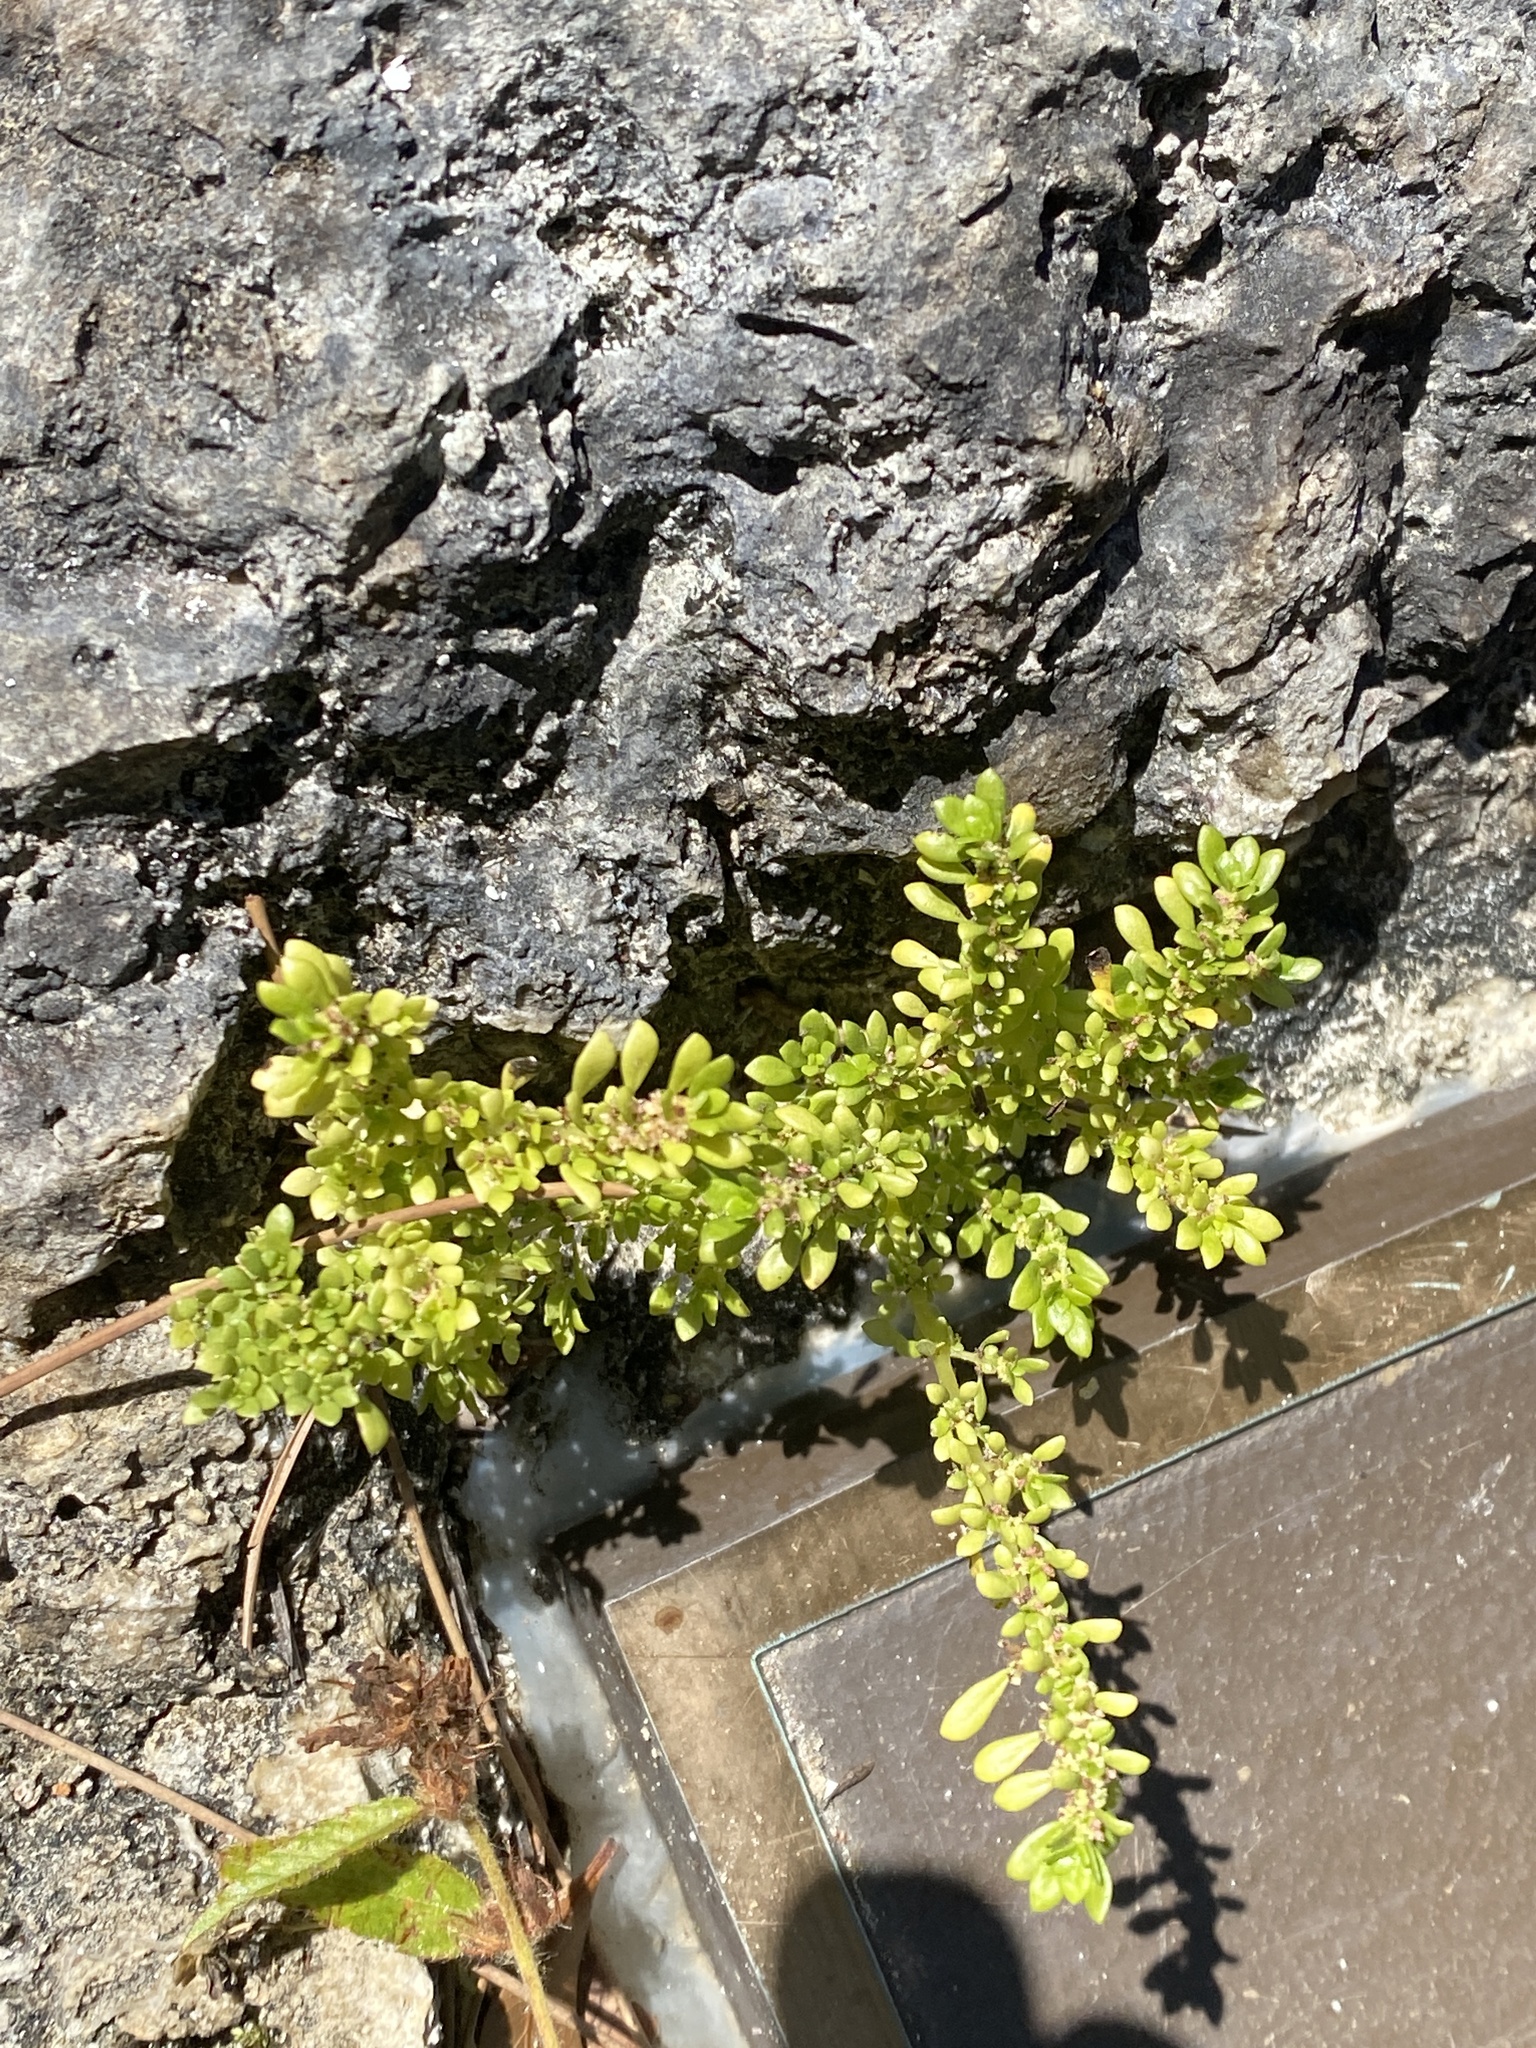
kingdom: Plantae
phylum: Tracheophyta
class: Magnoliopsida
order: Rosales
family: Urticaceae
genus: Pilea
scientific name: Pilea microphylla
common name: Artillery-plant
